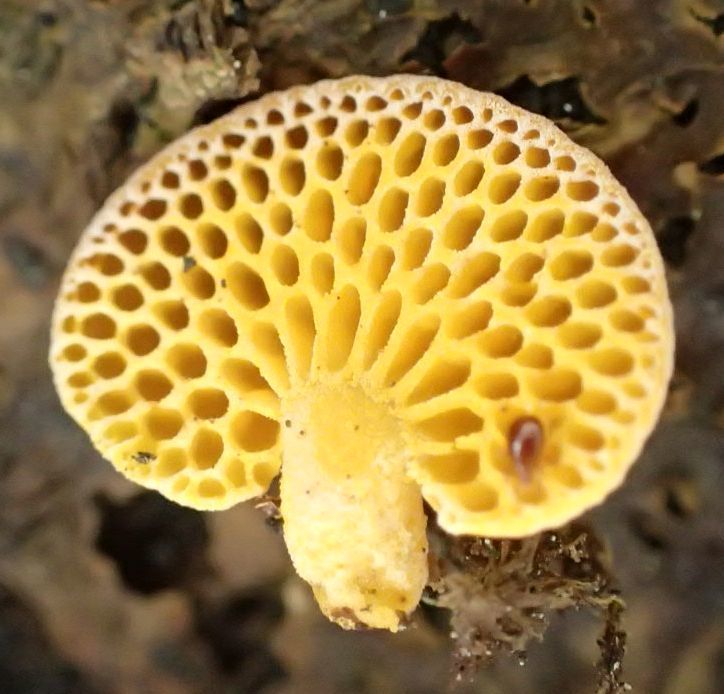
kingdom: Fungi
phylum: Basidiomycota
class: Agaricomycetes
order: Agaricales
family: Mycenaceae
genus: Favolaschia
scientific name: Favolaschia claudopus
